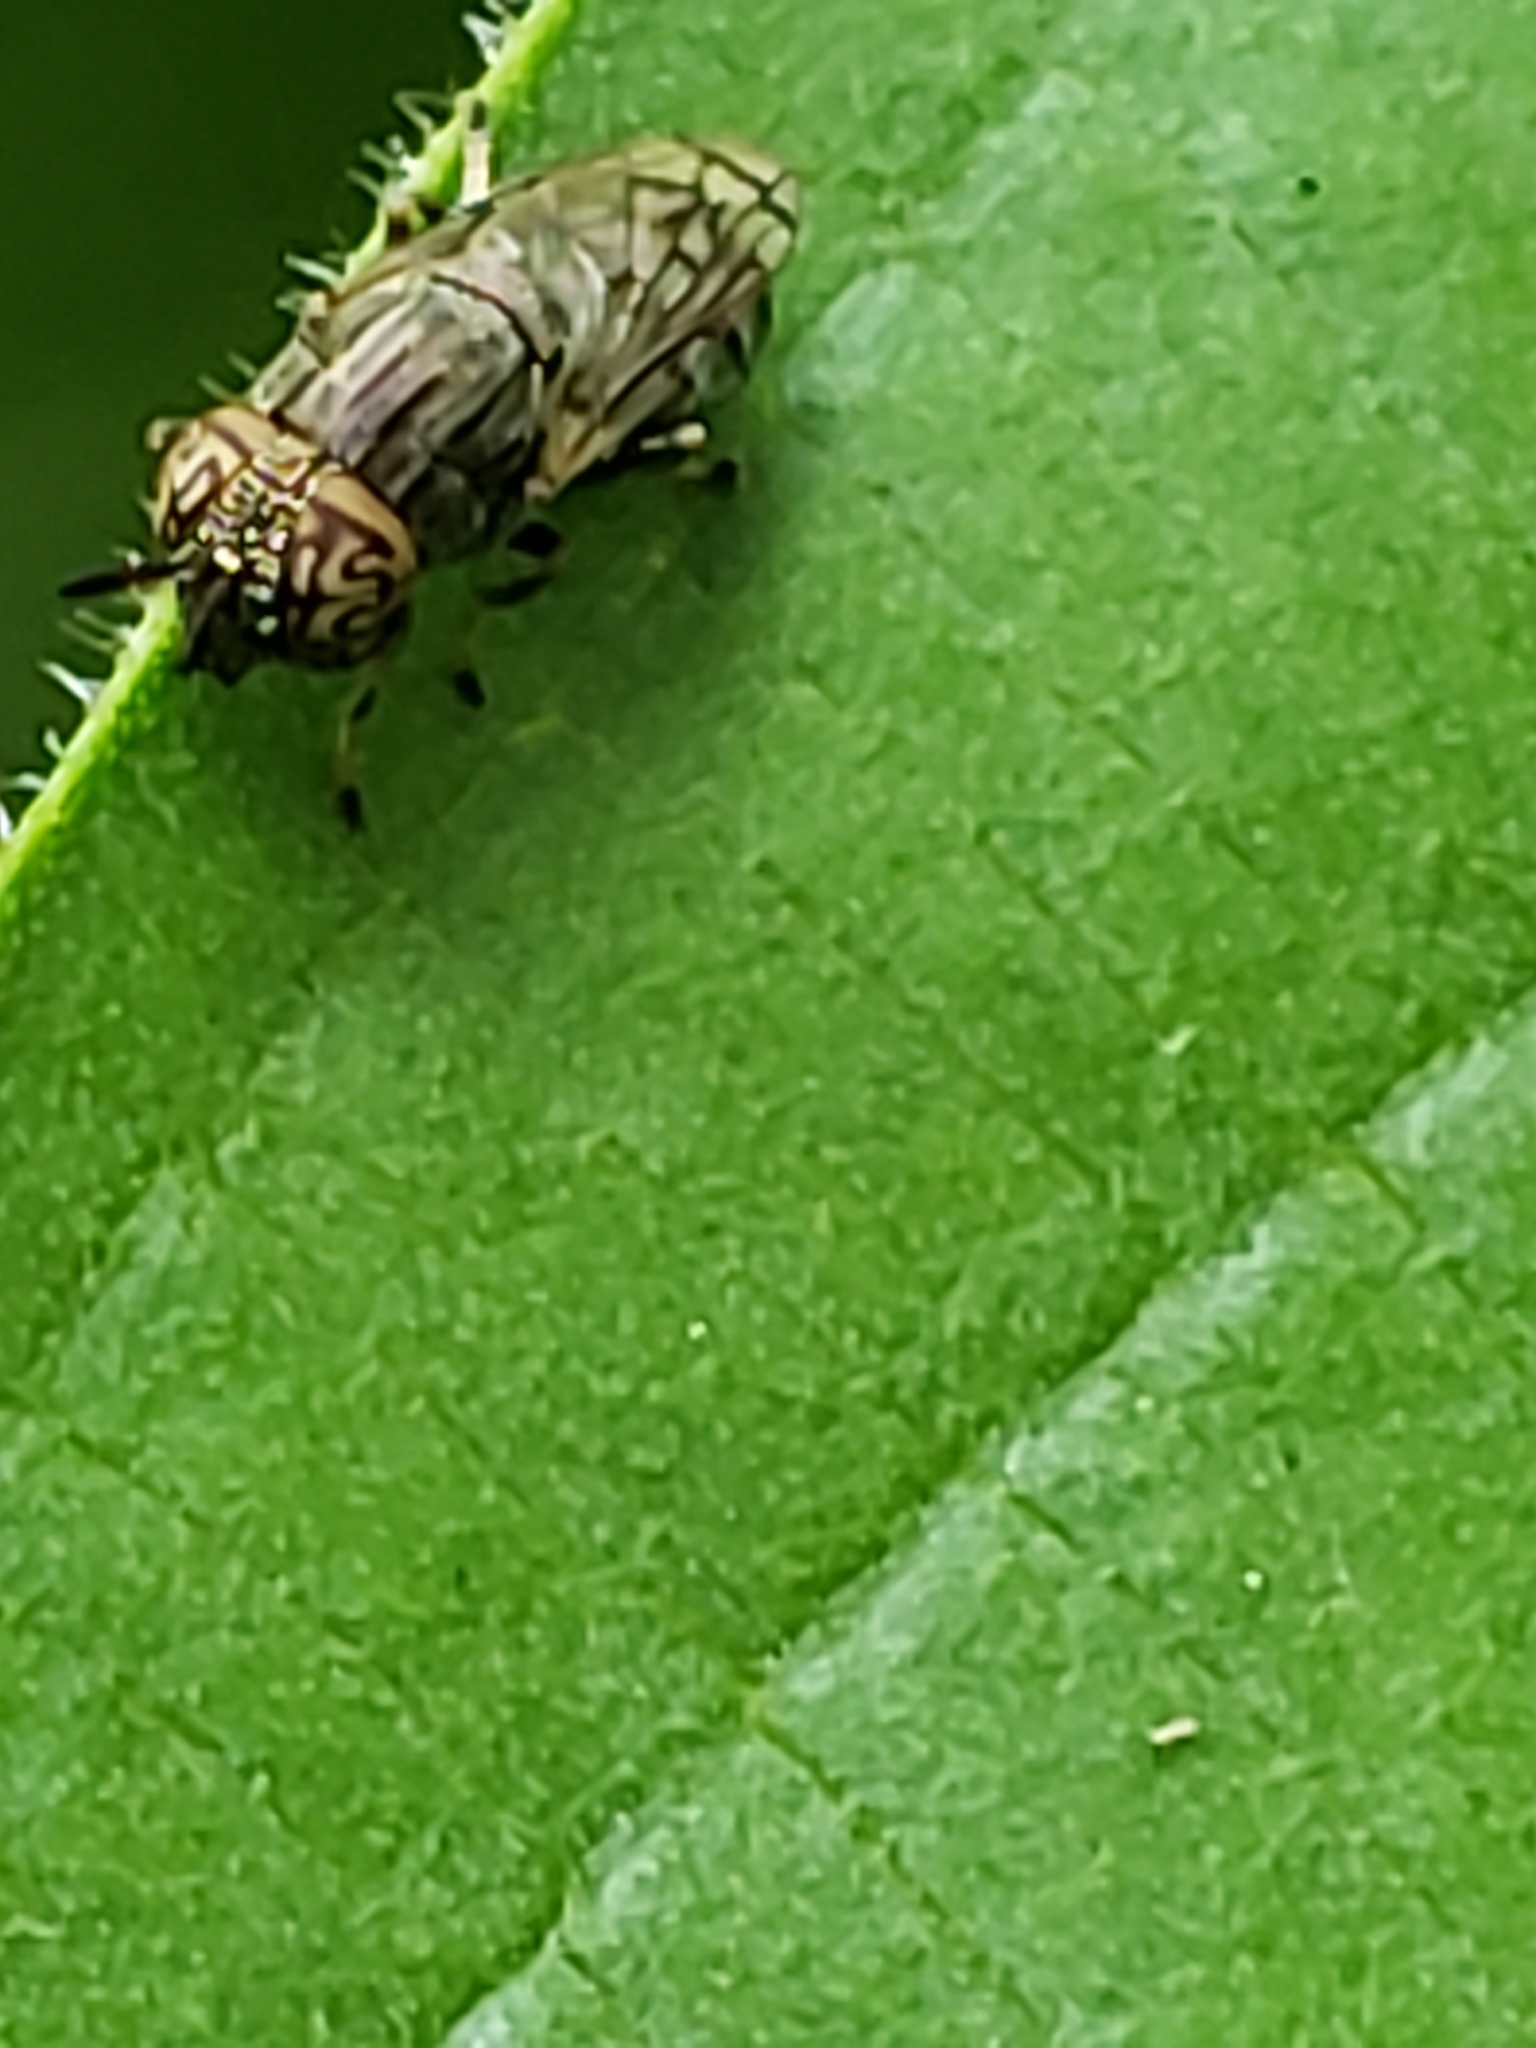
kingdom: Animalia
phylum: Arthropoda
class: Insecta
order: Diptera
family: Syrphidae
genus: Orthonevra
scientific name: Orthonevra nitida
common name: Wavy mucksucker
